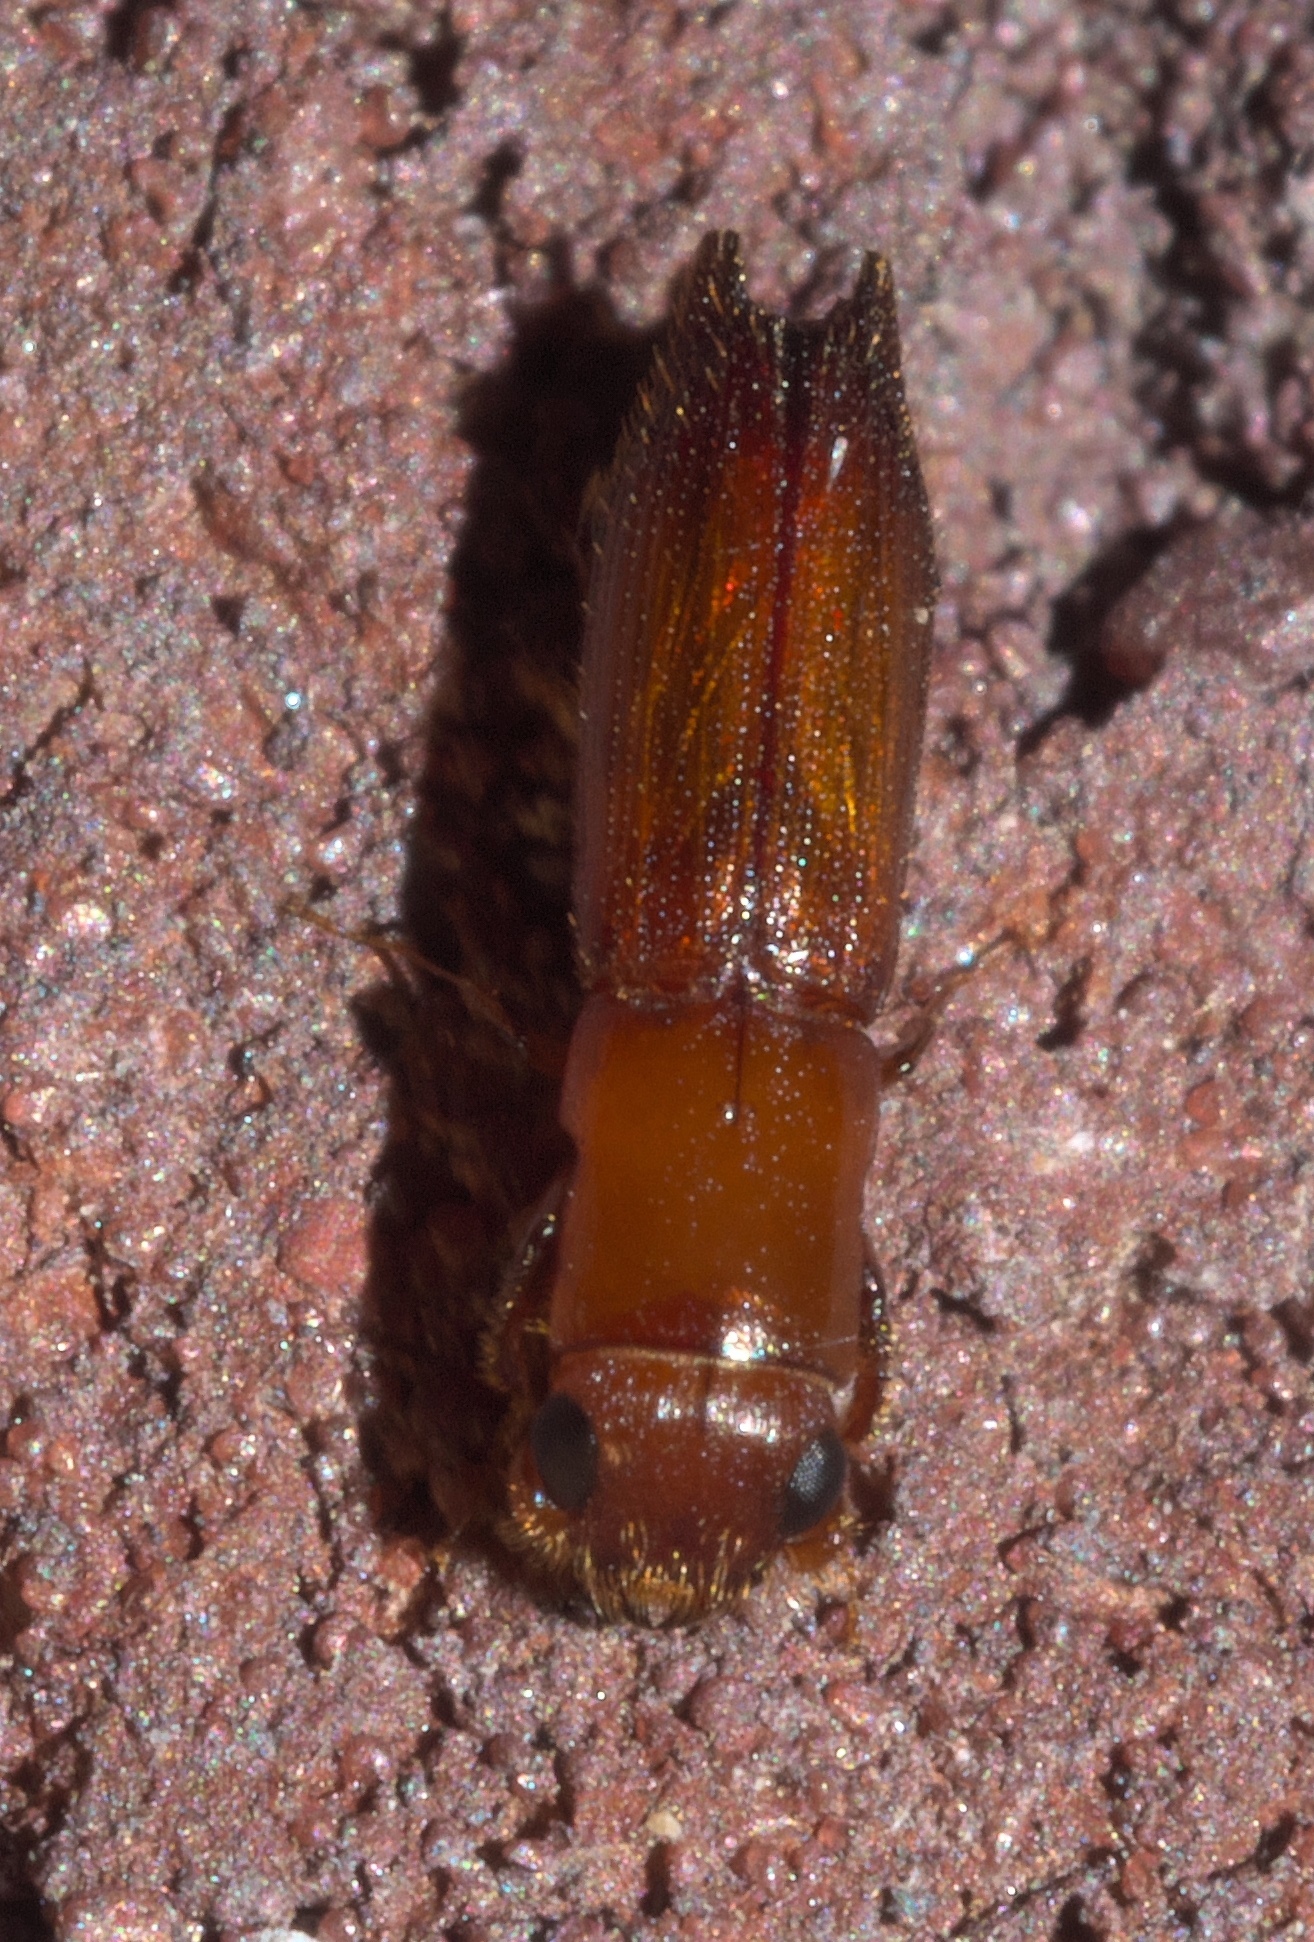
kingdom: Animalia
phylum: Arthropoda
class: Insecta
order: Coleoptera
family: Curculionidae
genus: Euplatypus
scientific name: Euplatypus compositus
